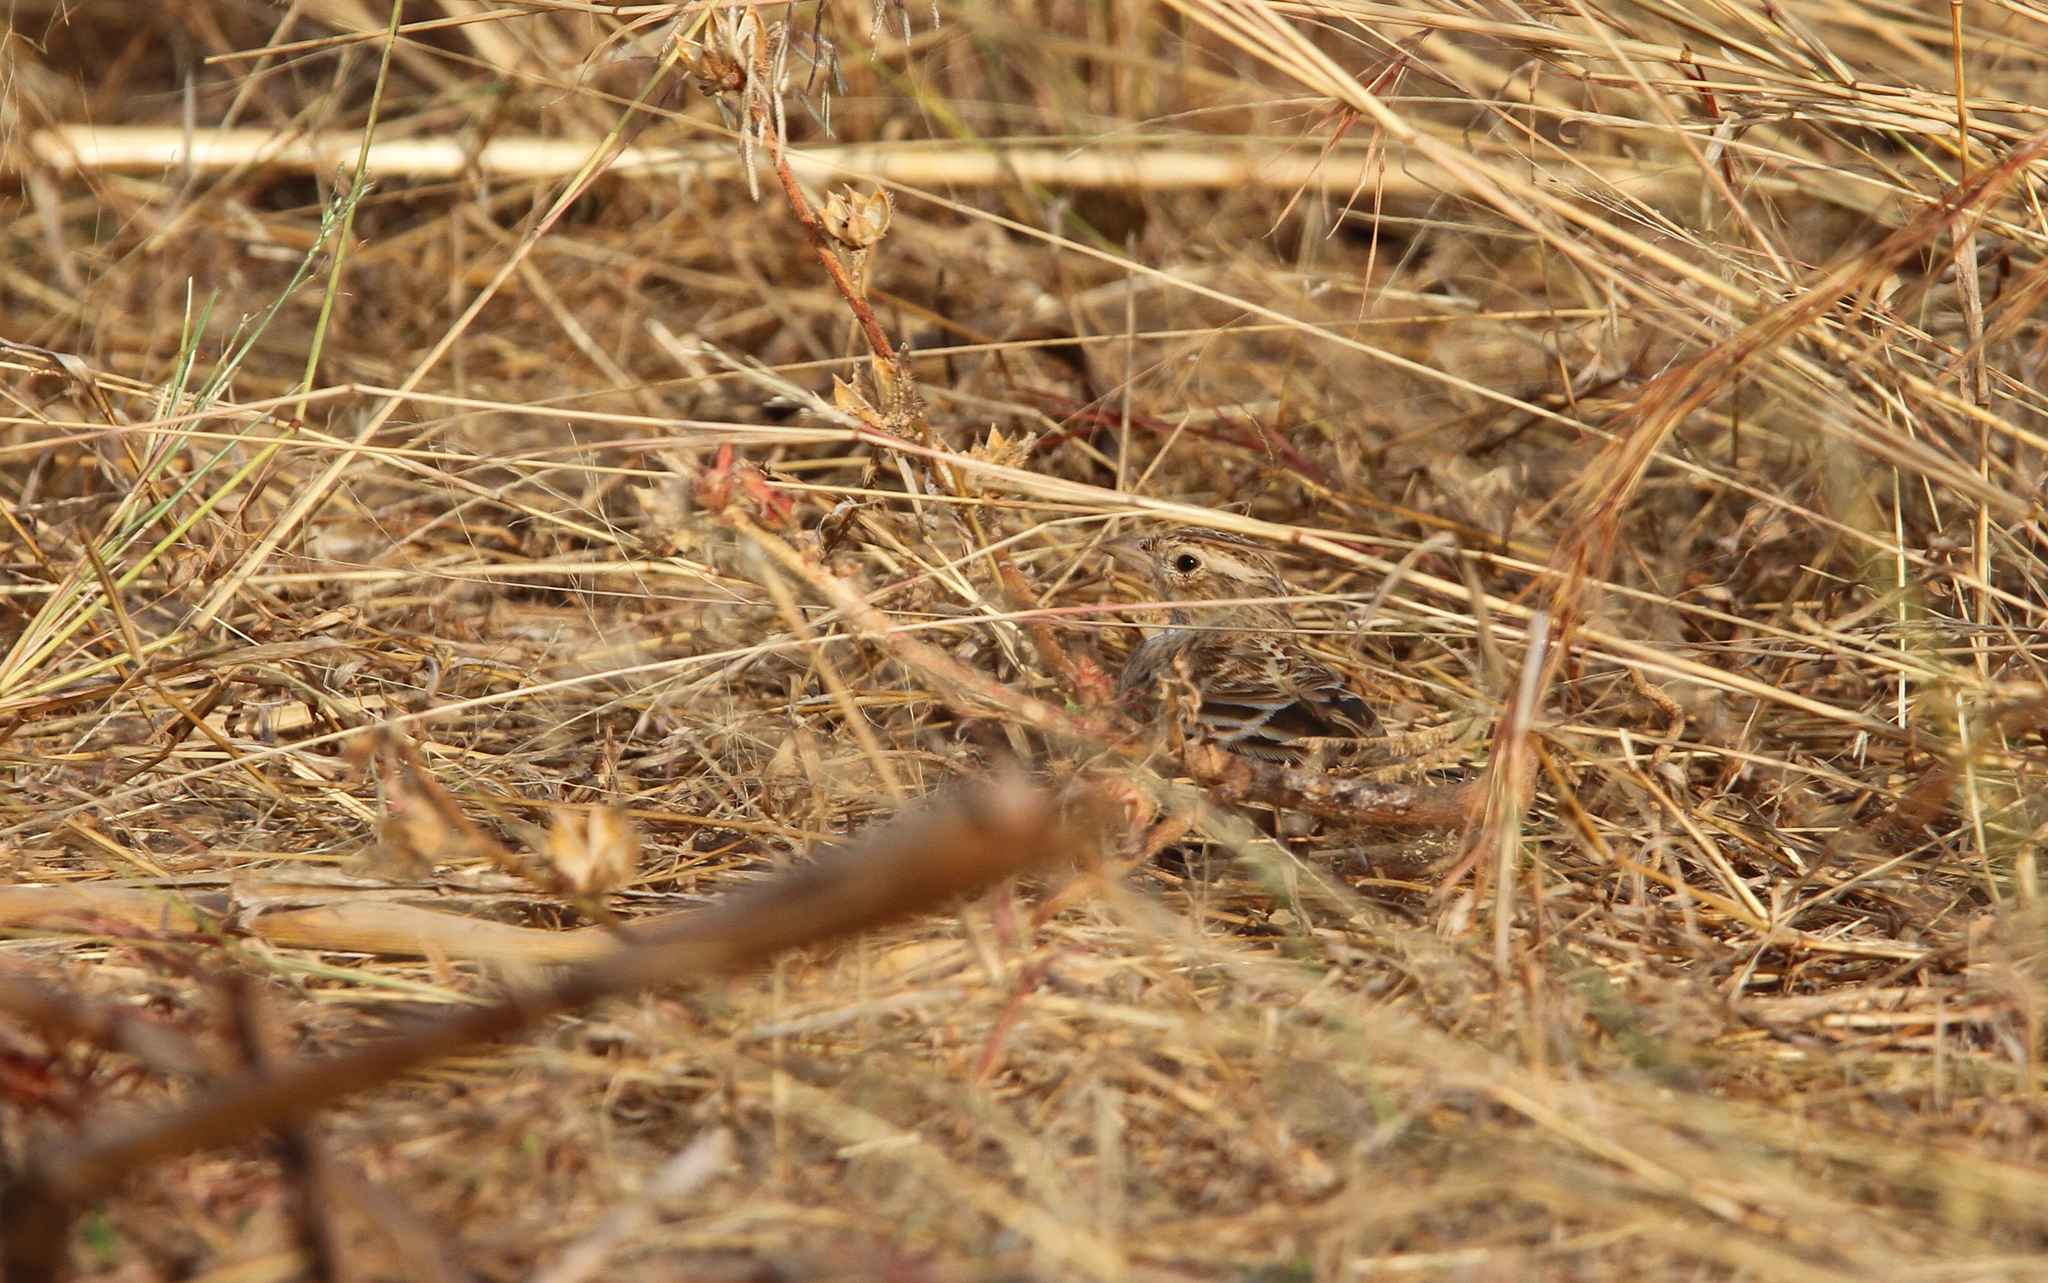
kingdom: Animalia
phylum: Chordata
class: Aves
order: Passeriformes
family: Alaudidae
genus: Mirafra
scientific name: Mirafra rufocinnamomea
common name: Flappet lark
